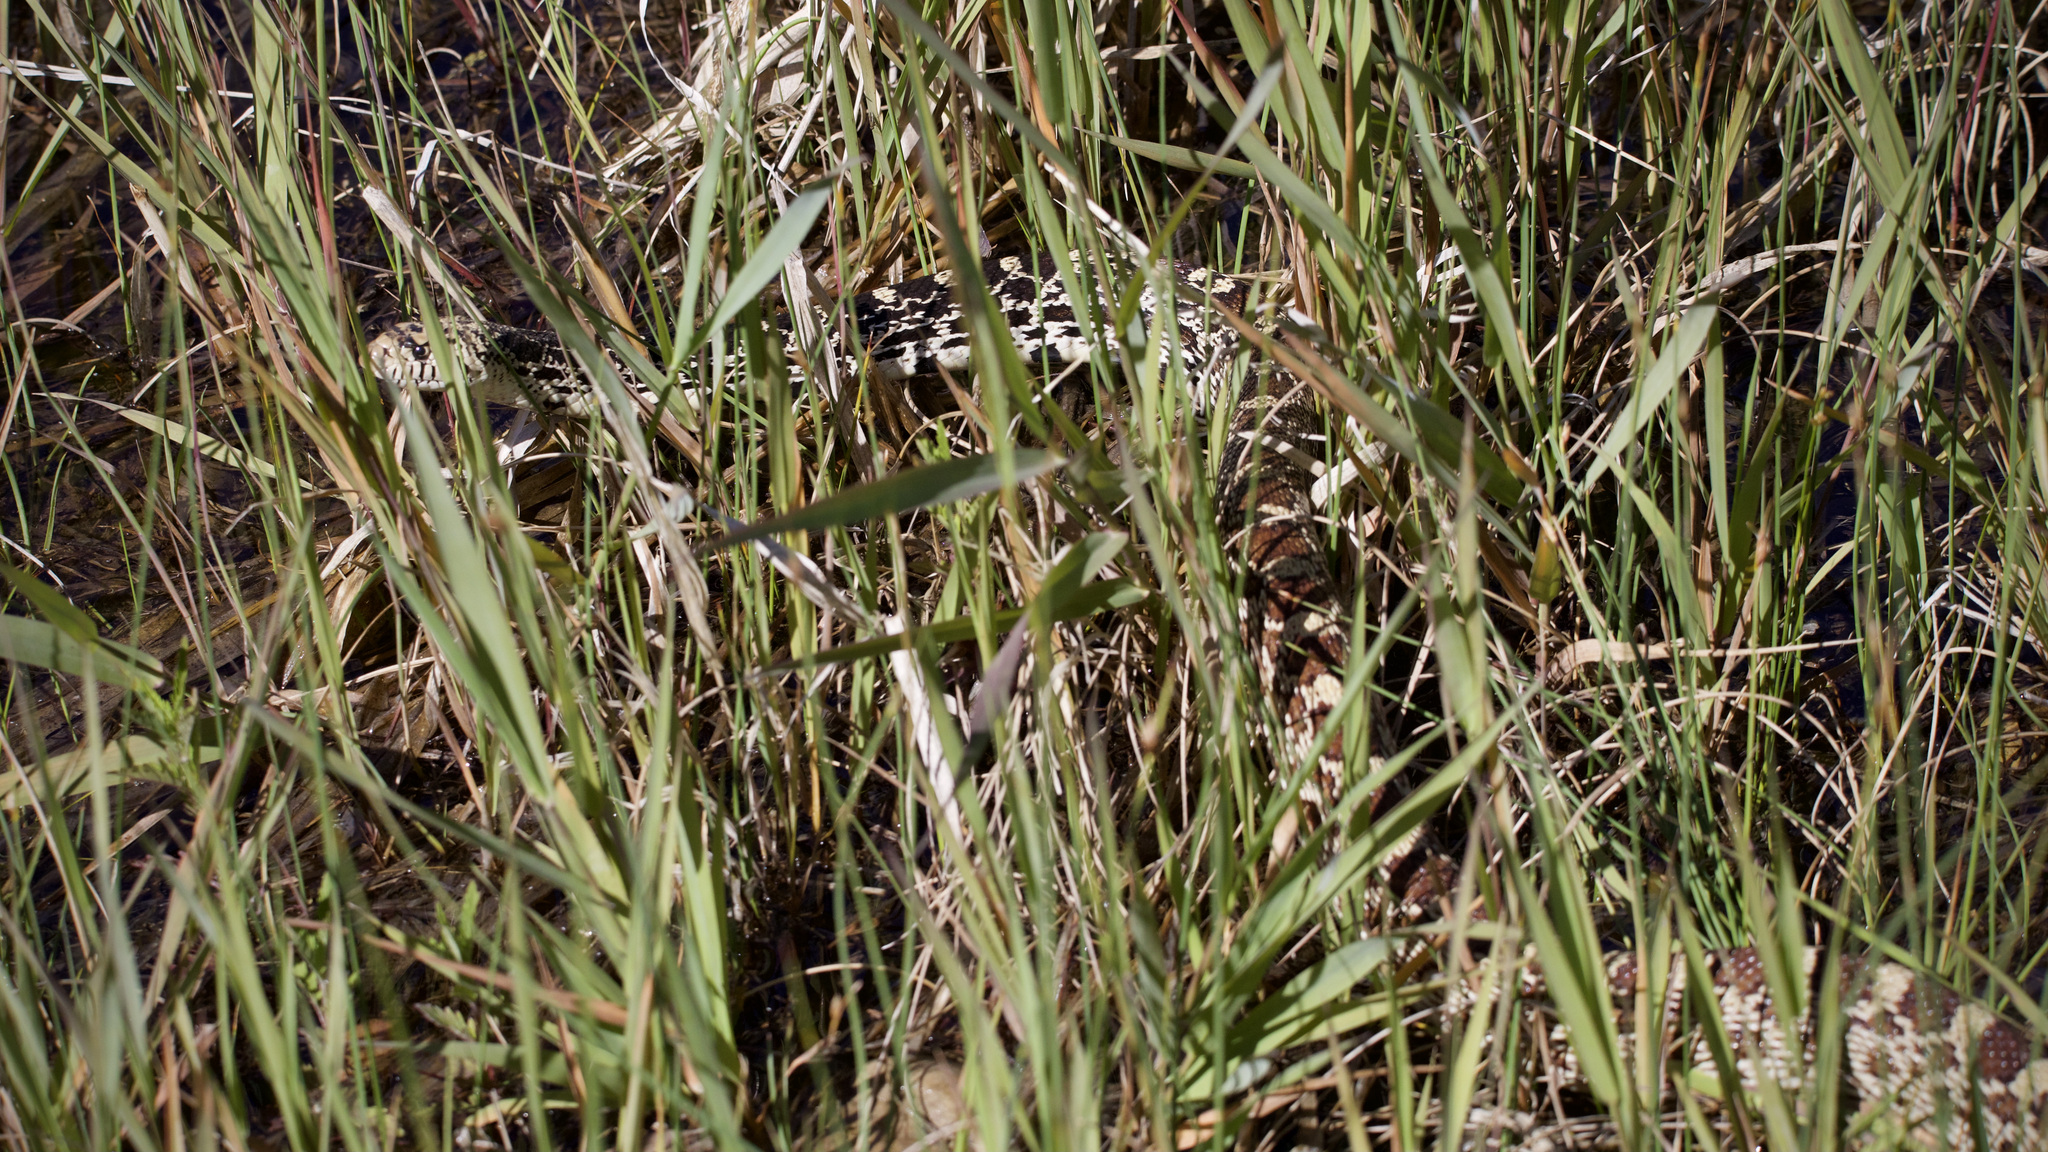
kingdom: Animalia
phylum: Chordata
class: Squamata
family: Colubridae
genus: Pituophis
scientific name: Pituophis catenifer
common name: Gopher snake
